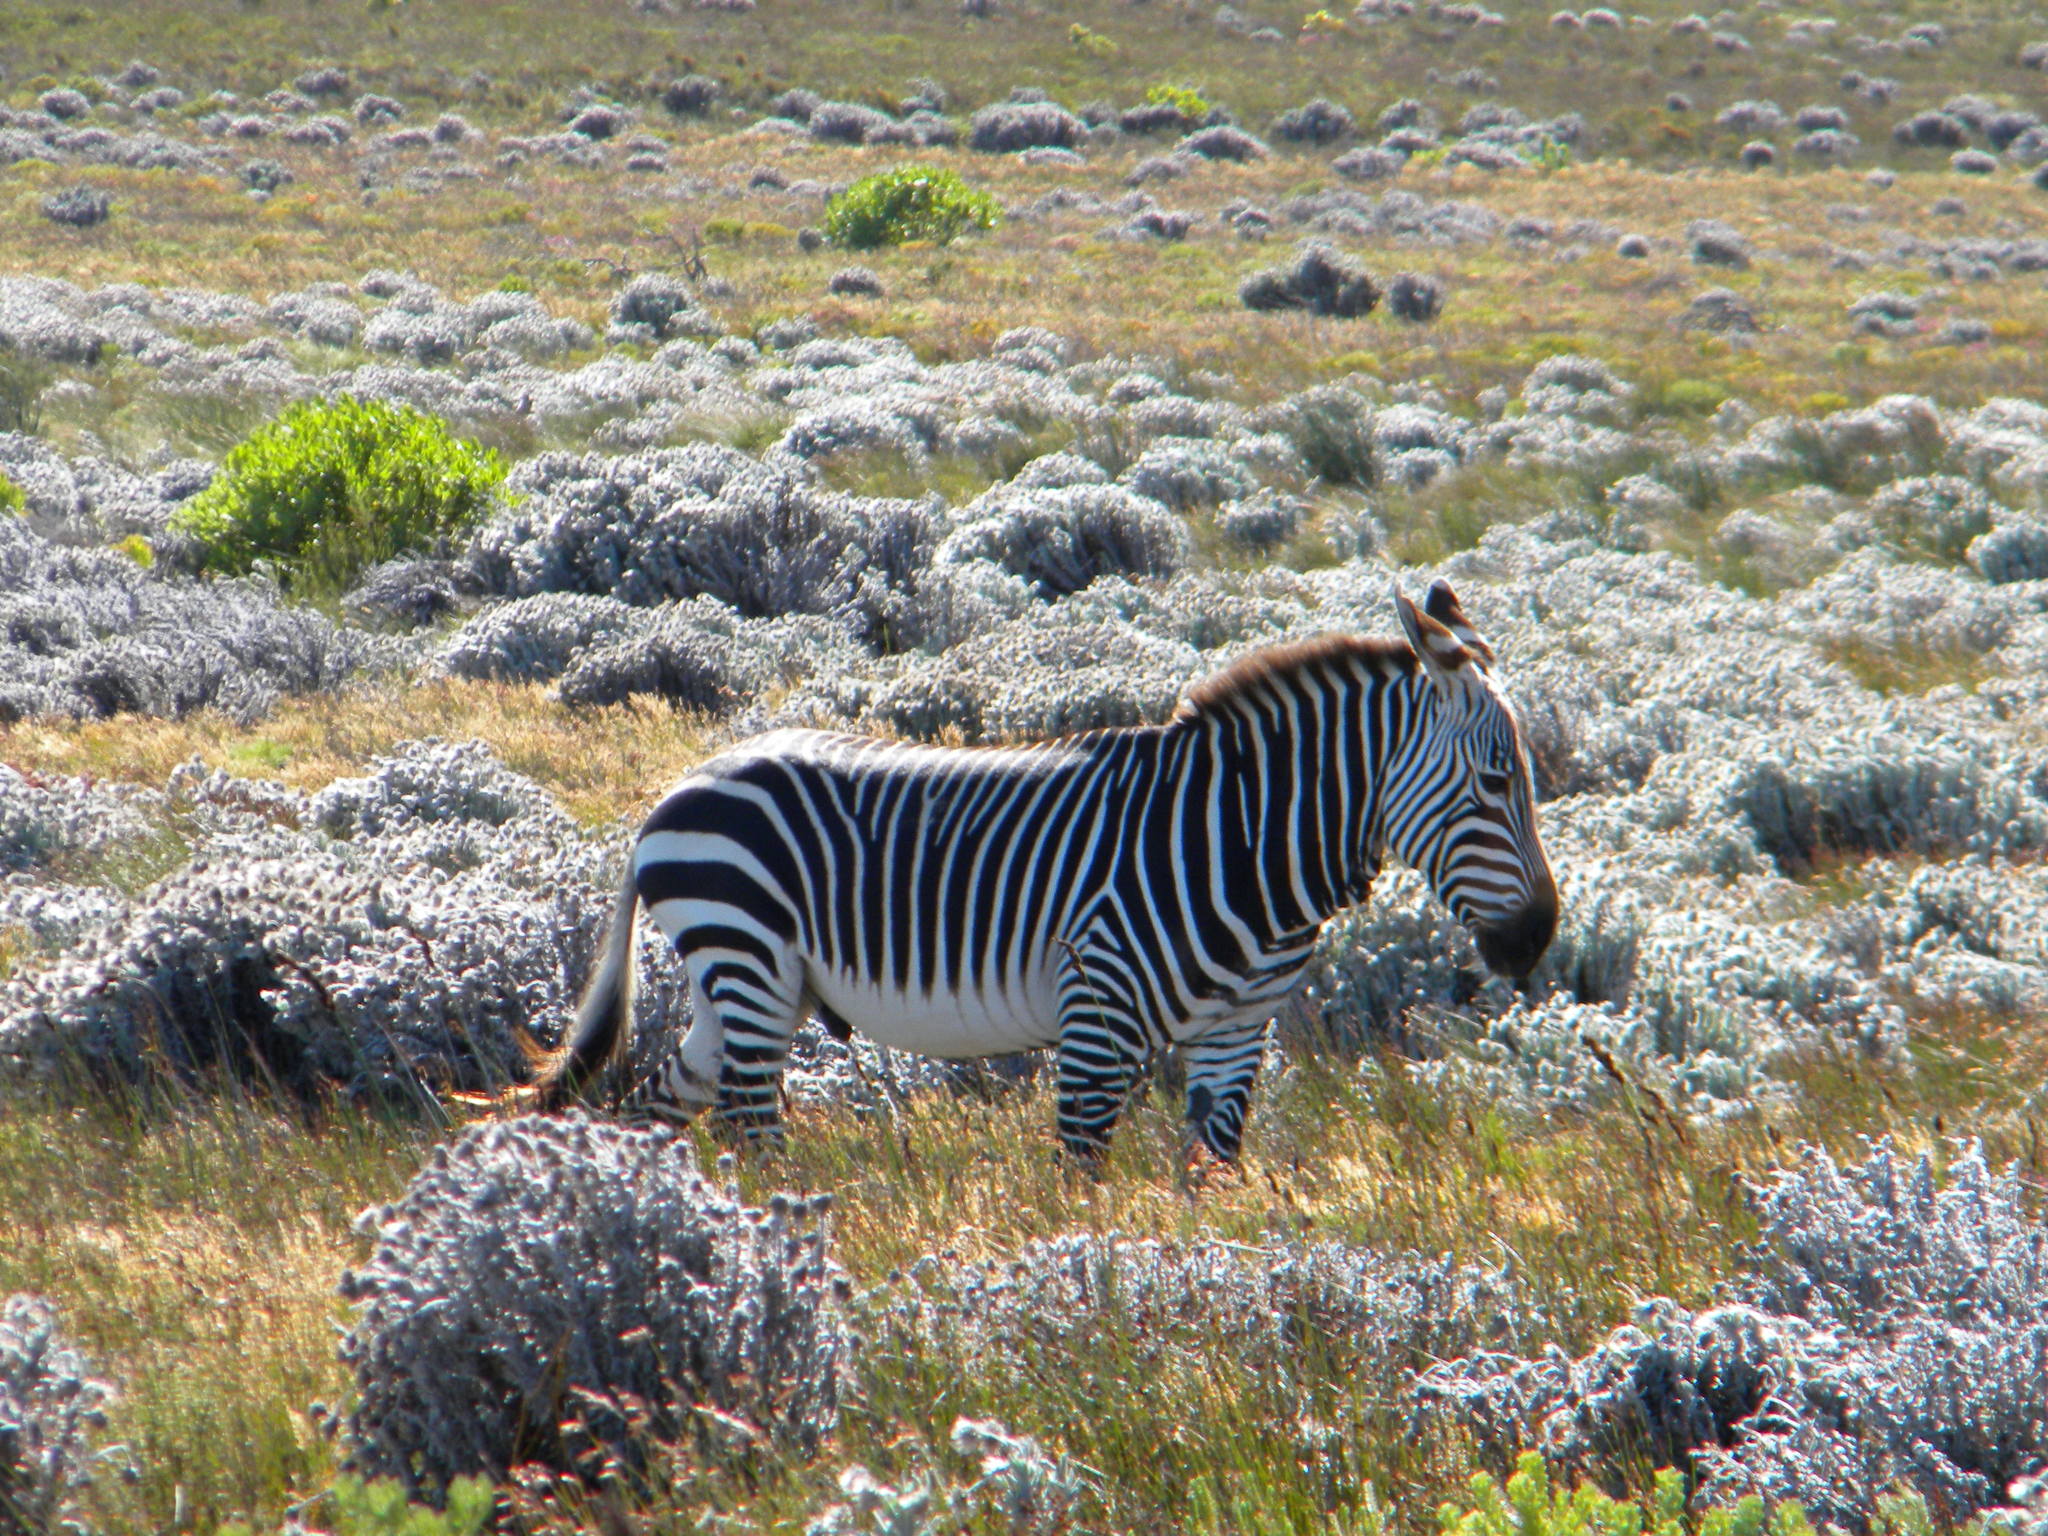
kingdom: Animalia
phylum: Chordata
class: Mammalia
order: Perissodactyla
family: Equidae
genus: Equus
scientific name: Equus zebra
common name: Mountain zebra
